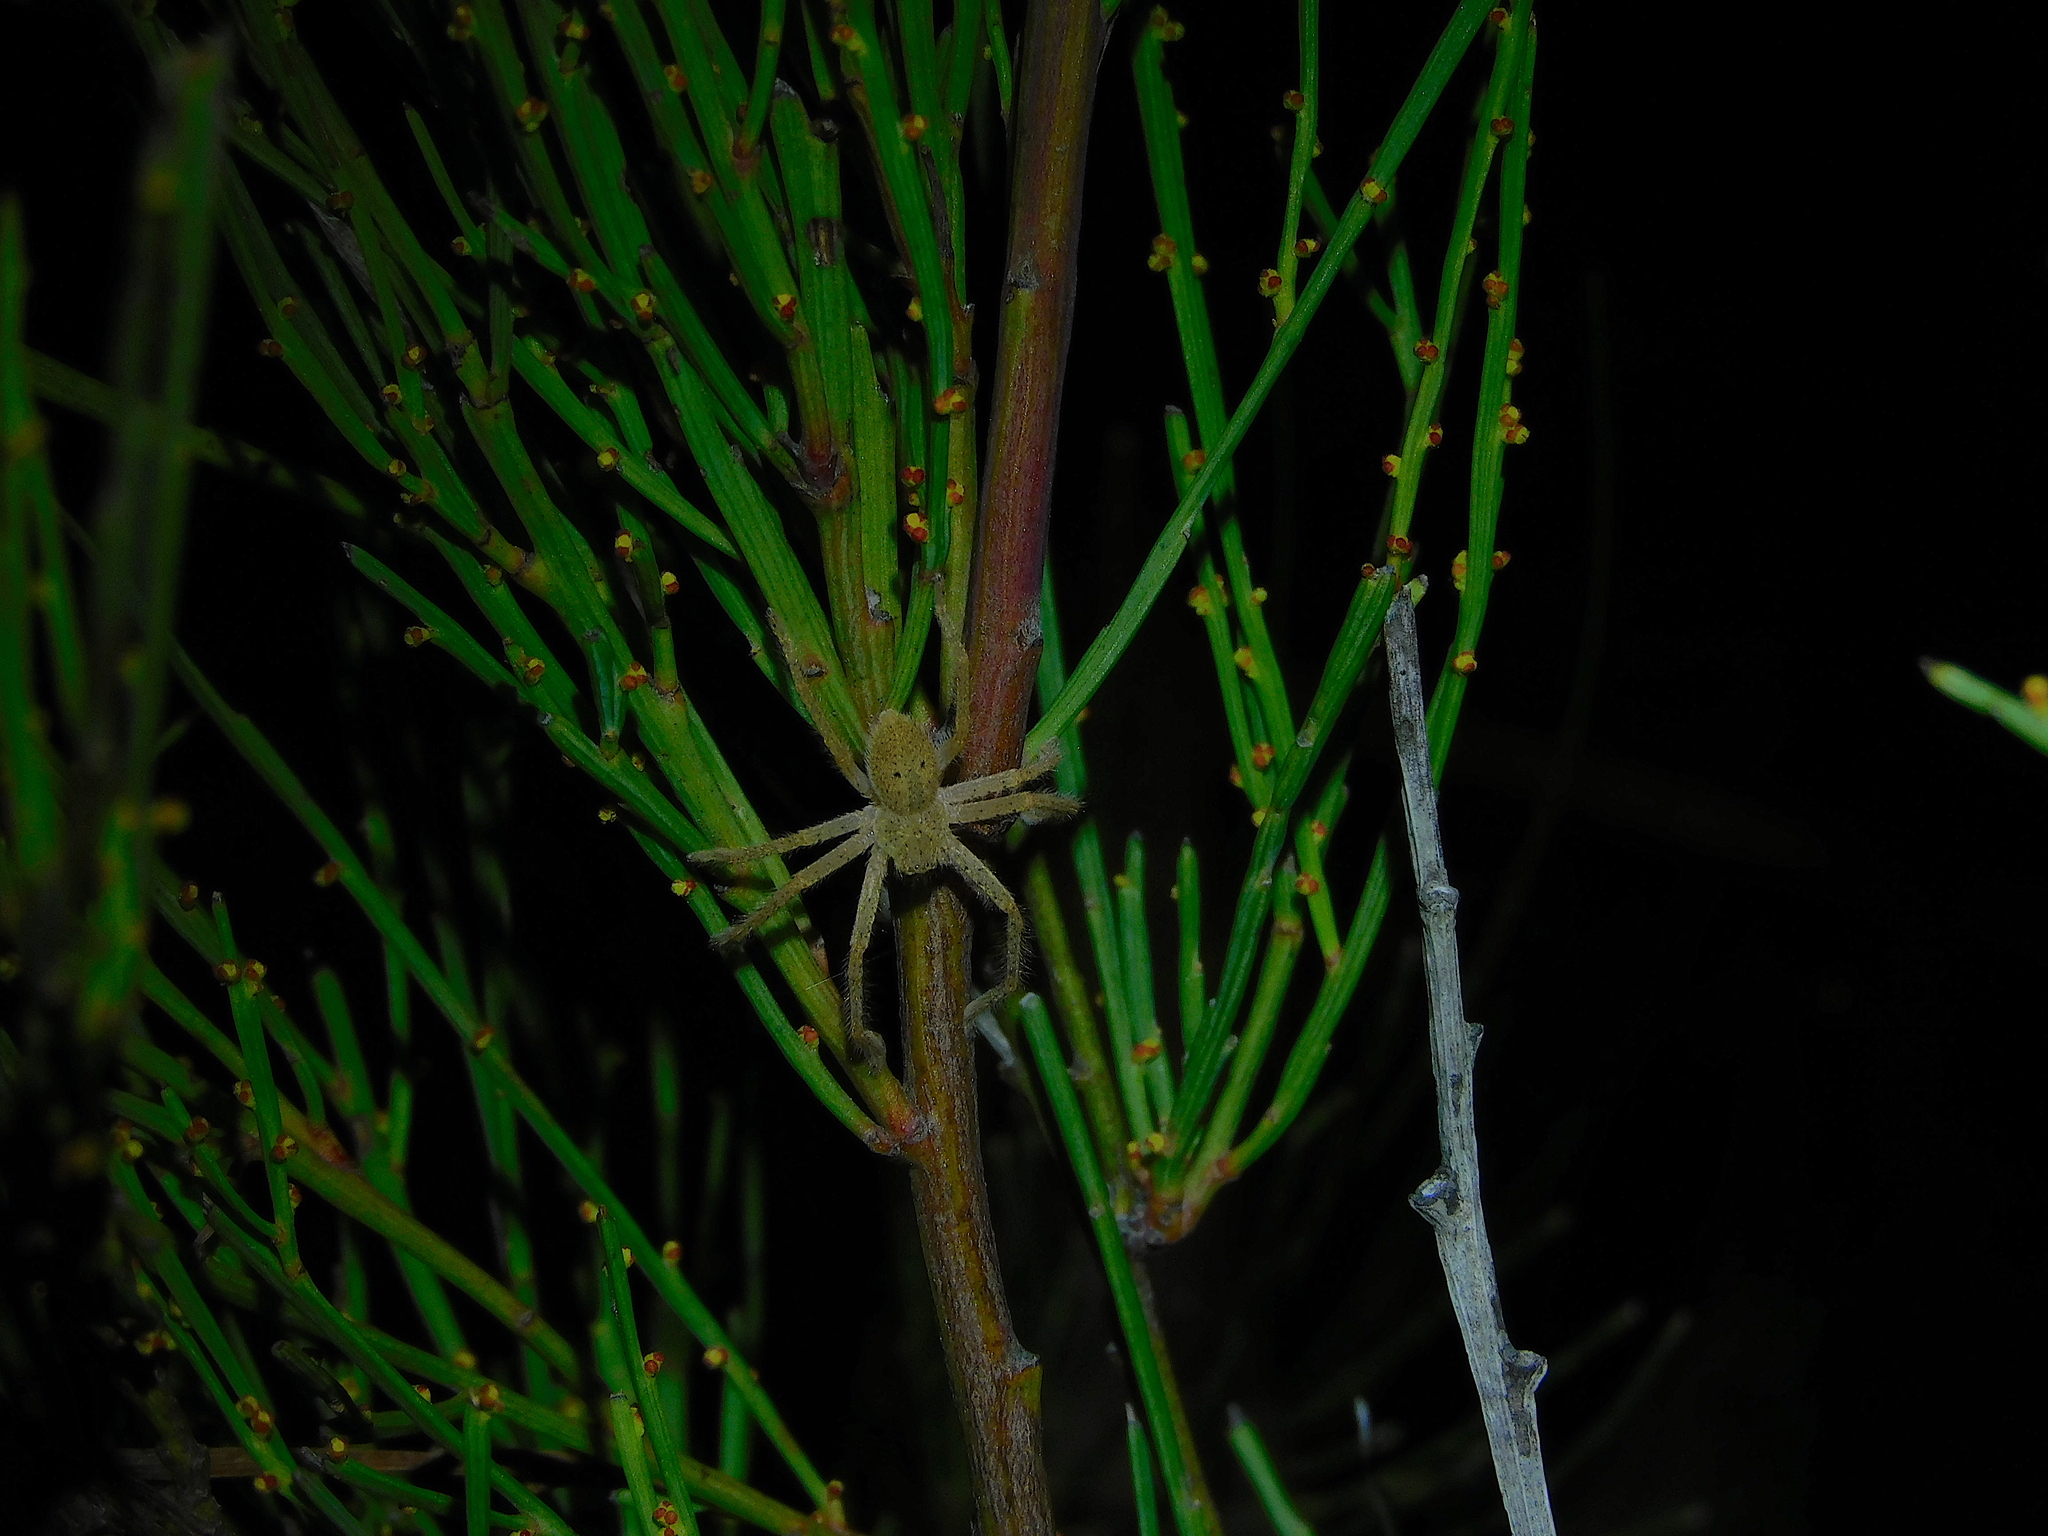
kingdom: Animalia
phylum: Arthropoda
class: Arachnida
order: Araneae
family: Sparassidae
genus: Neosparassus
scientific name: Neosparassus diana
